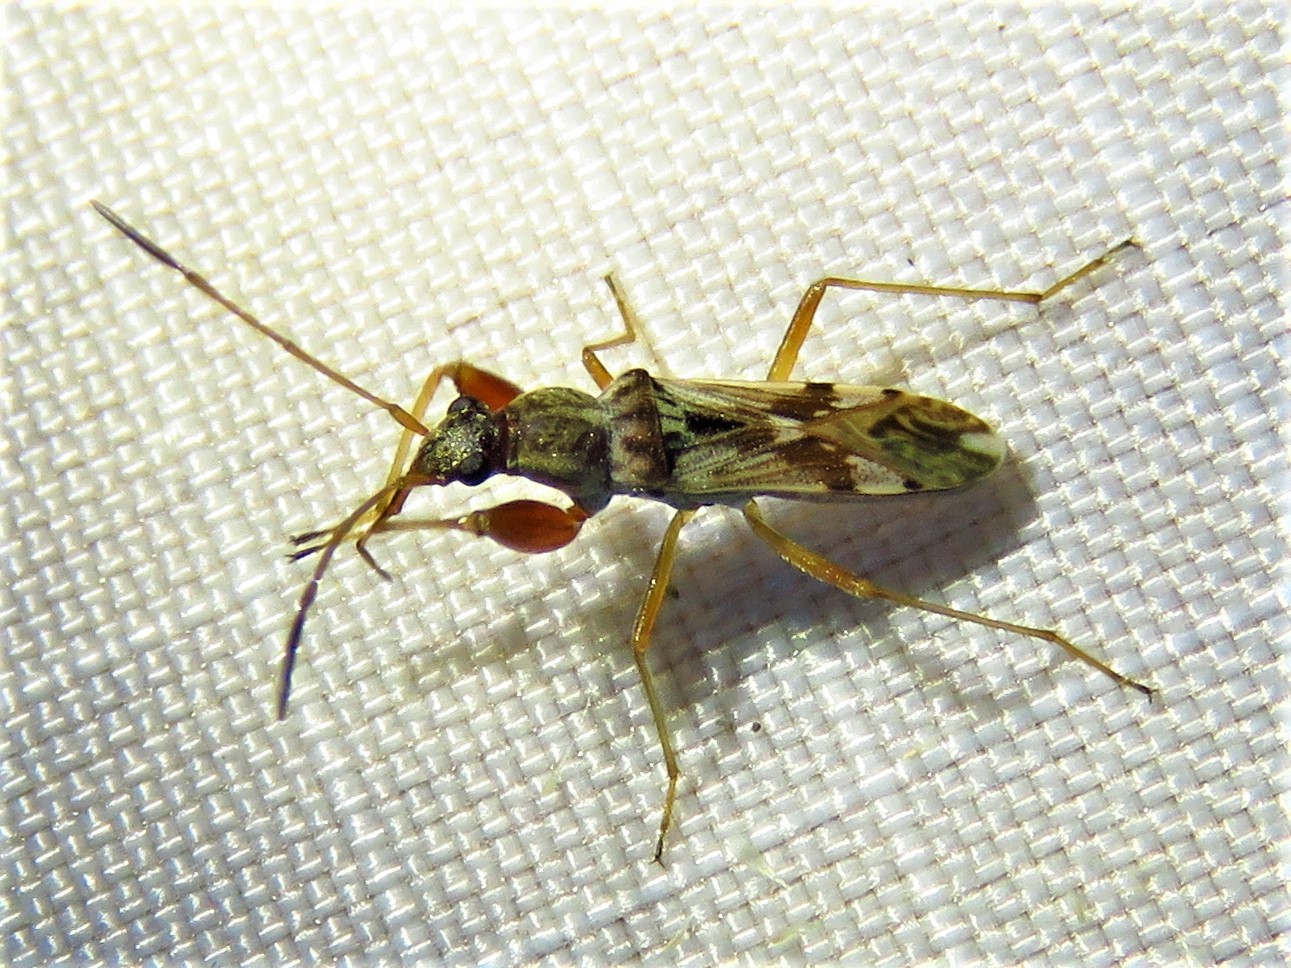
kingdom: Animalia
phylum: Arthropoda
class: Insecta
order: Hemiptera
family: Rhyparochromidae
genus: Neopamera
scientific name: Neopamera bilobata
